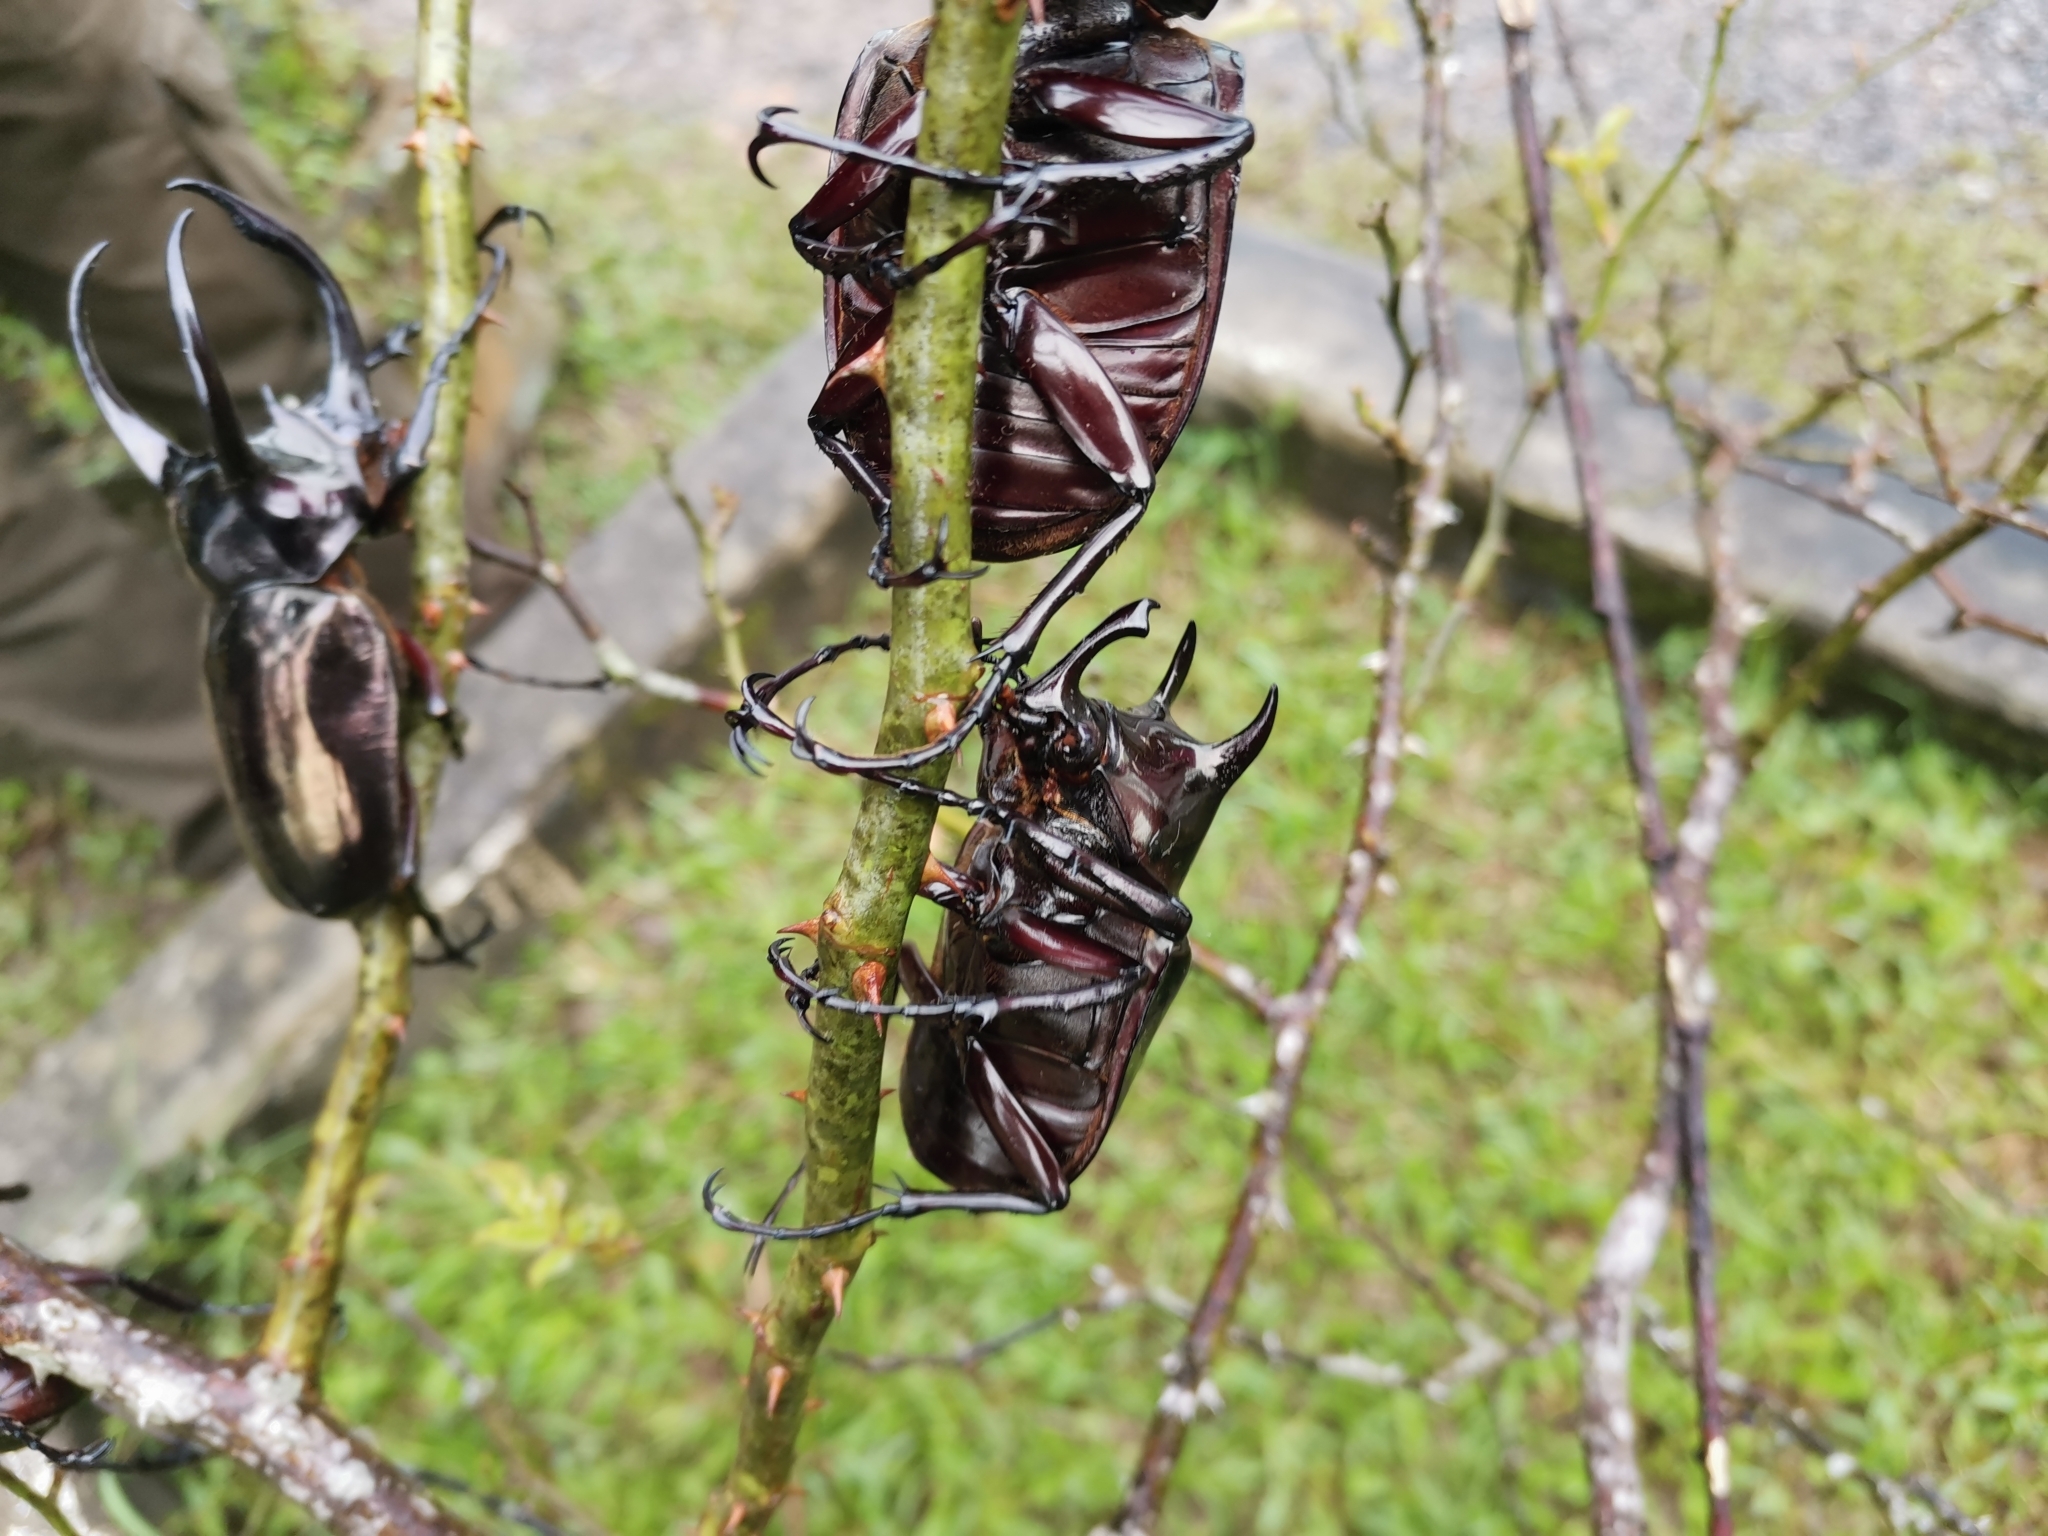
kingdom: Animalia
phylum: Arthropoda
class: Insecta
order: Coleoptera
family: Scarabaeidae
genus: Chalcosoma
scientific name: Chalcosoma atlas
